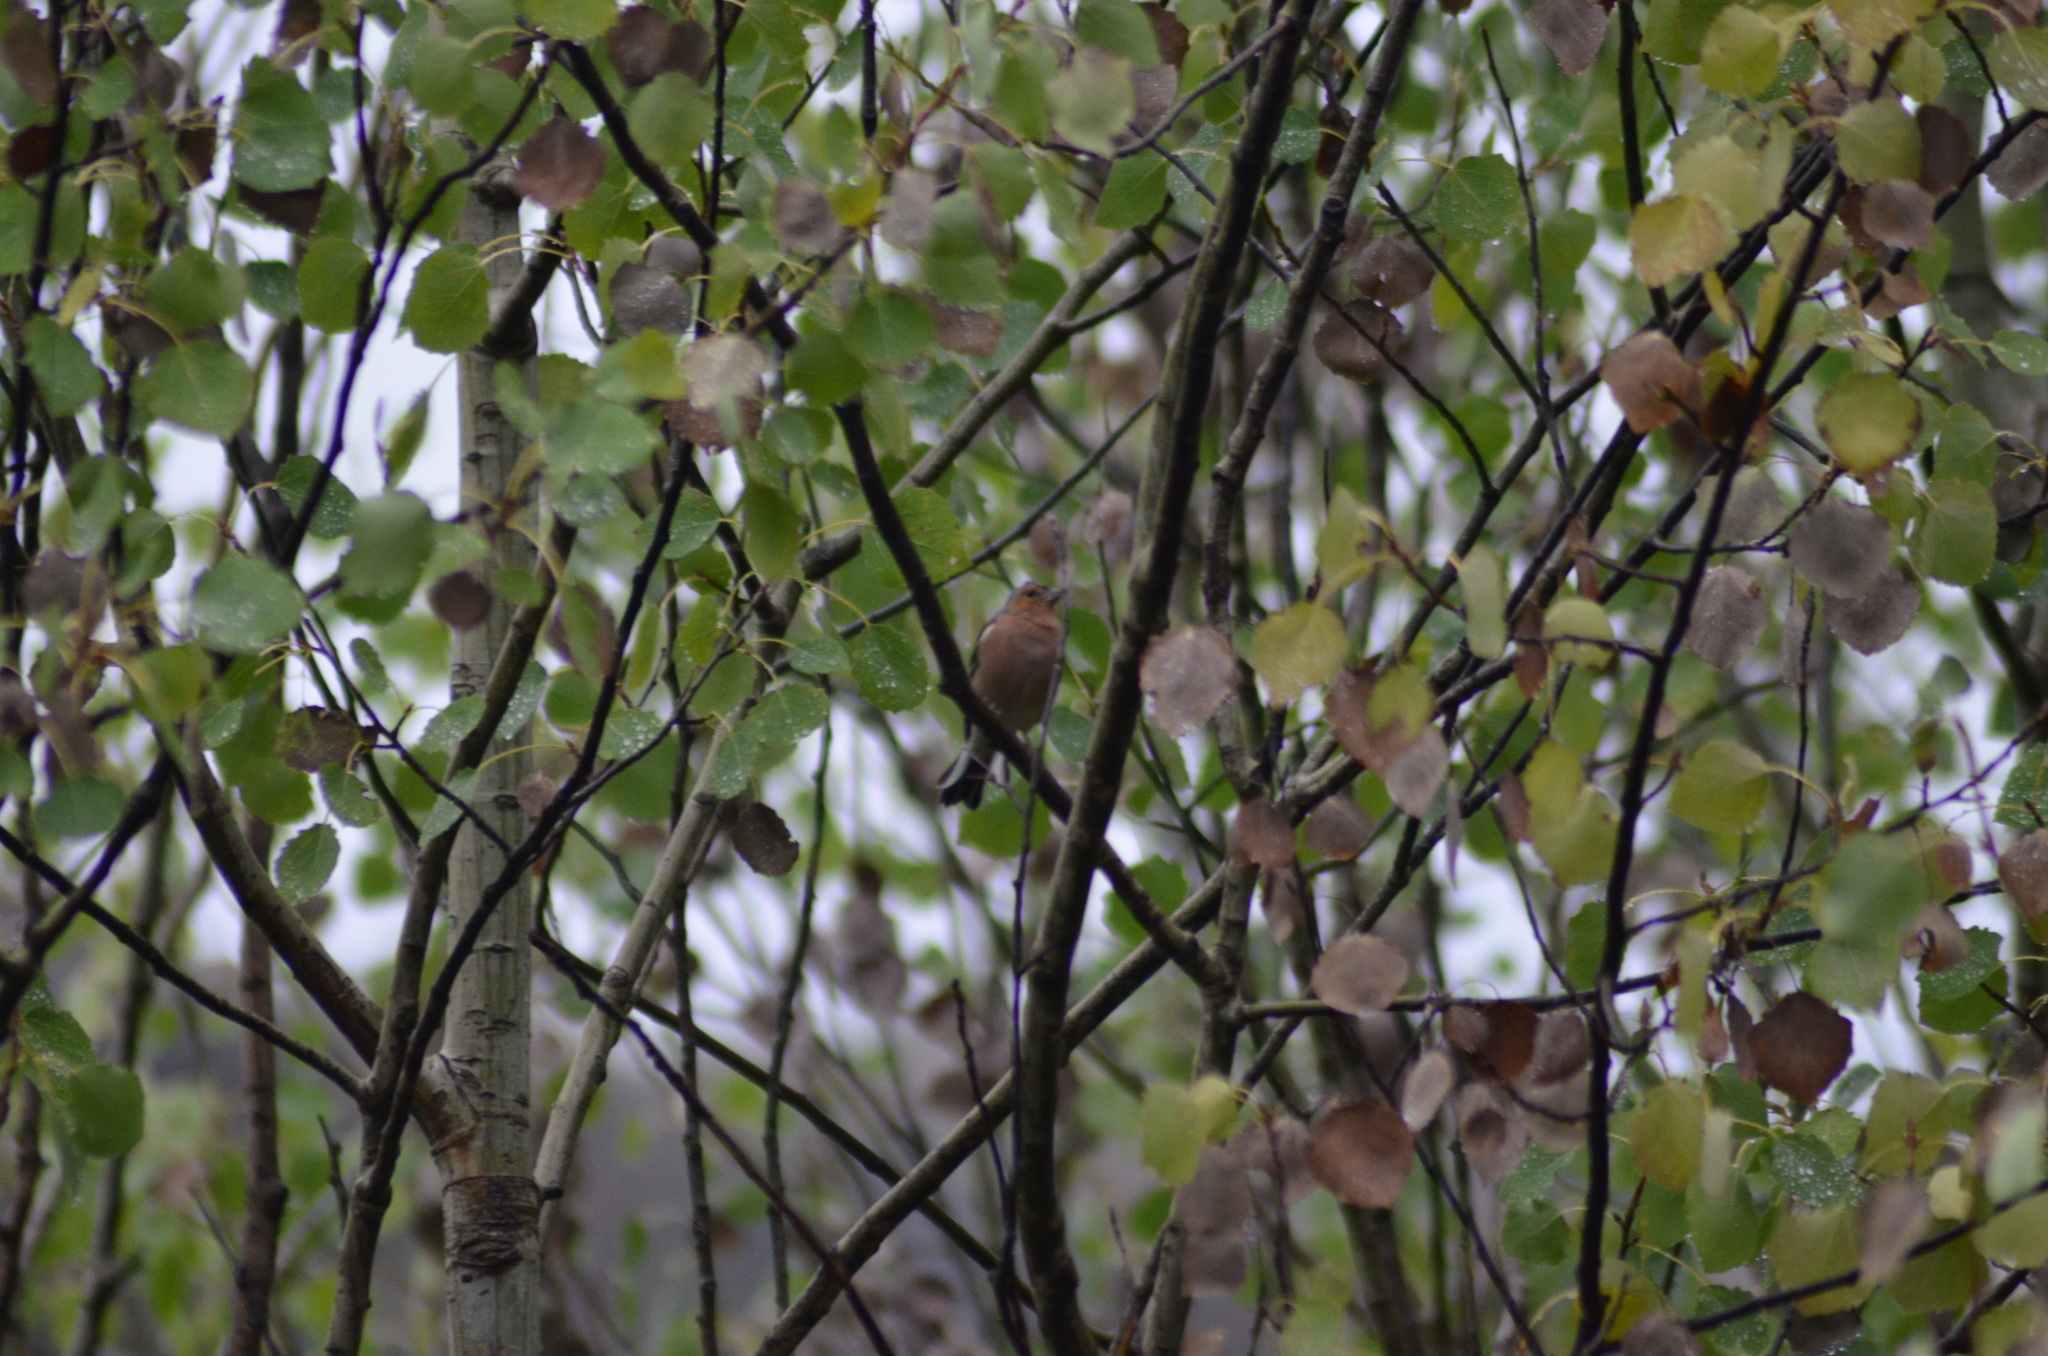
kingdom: Animalia
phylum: Chordata
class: Aves
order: Passeriformes
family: Fringillidae
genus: Fringilla
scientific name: Fringilla coelebs
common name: Common chaffinch
